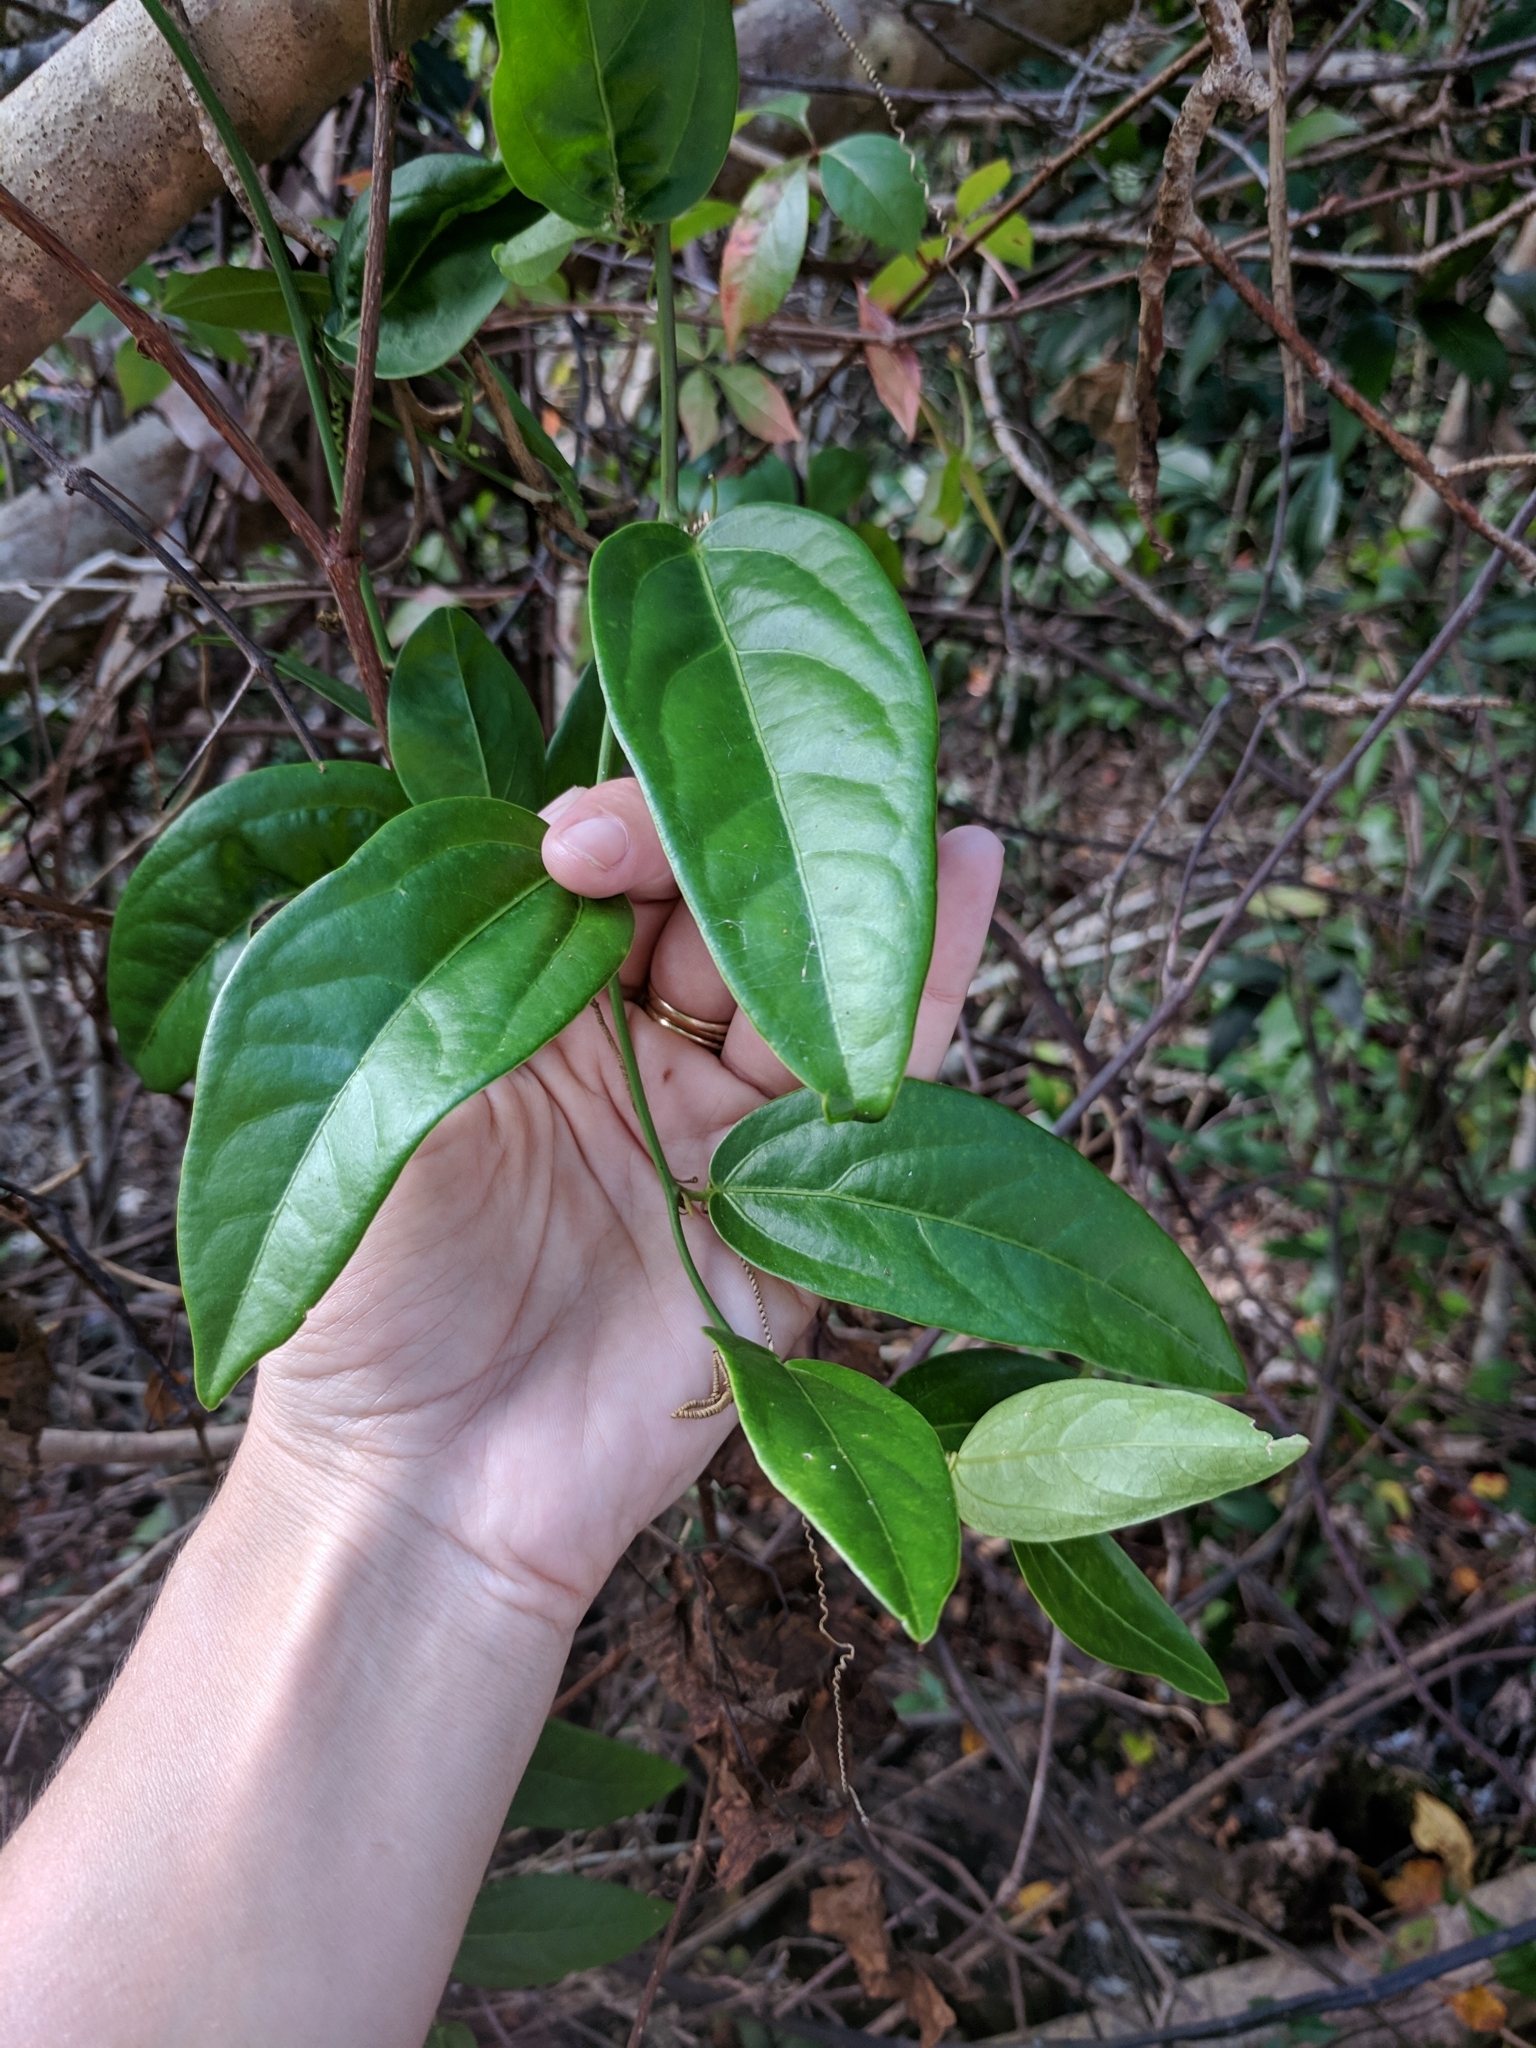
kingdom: Plantae
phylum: Tracheophyta
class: Magnoliopsida
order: Malpighiales
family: Passifloraceae
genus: Passiflora
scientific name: Passiflora pallida
